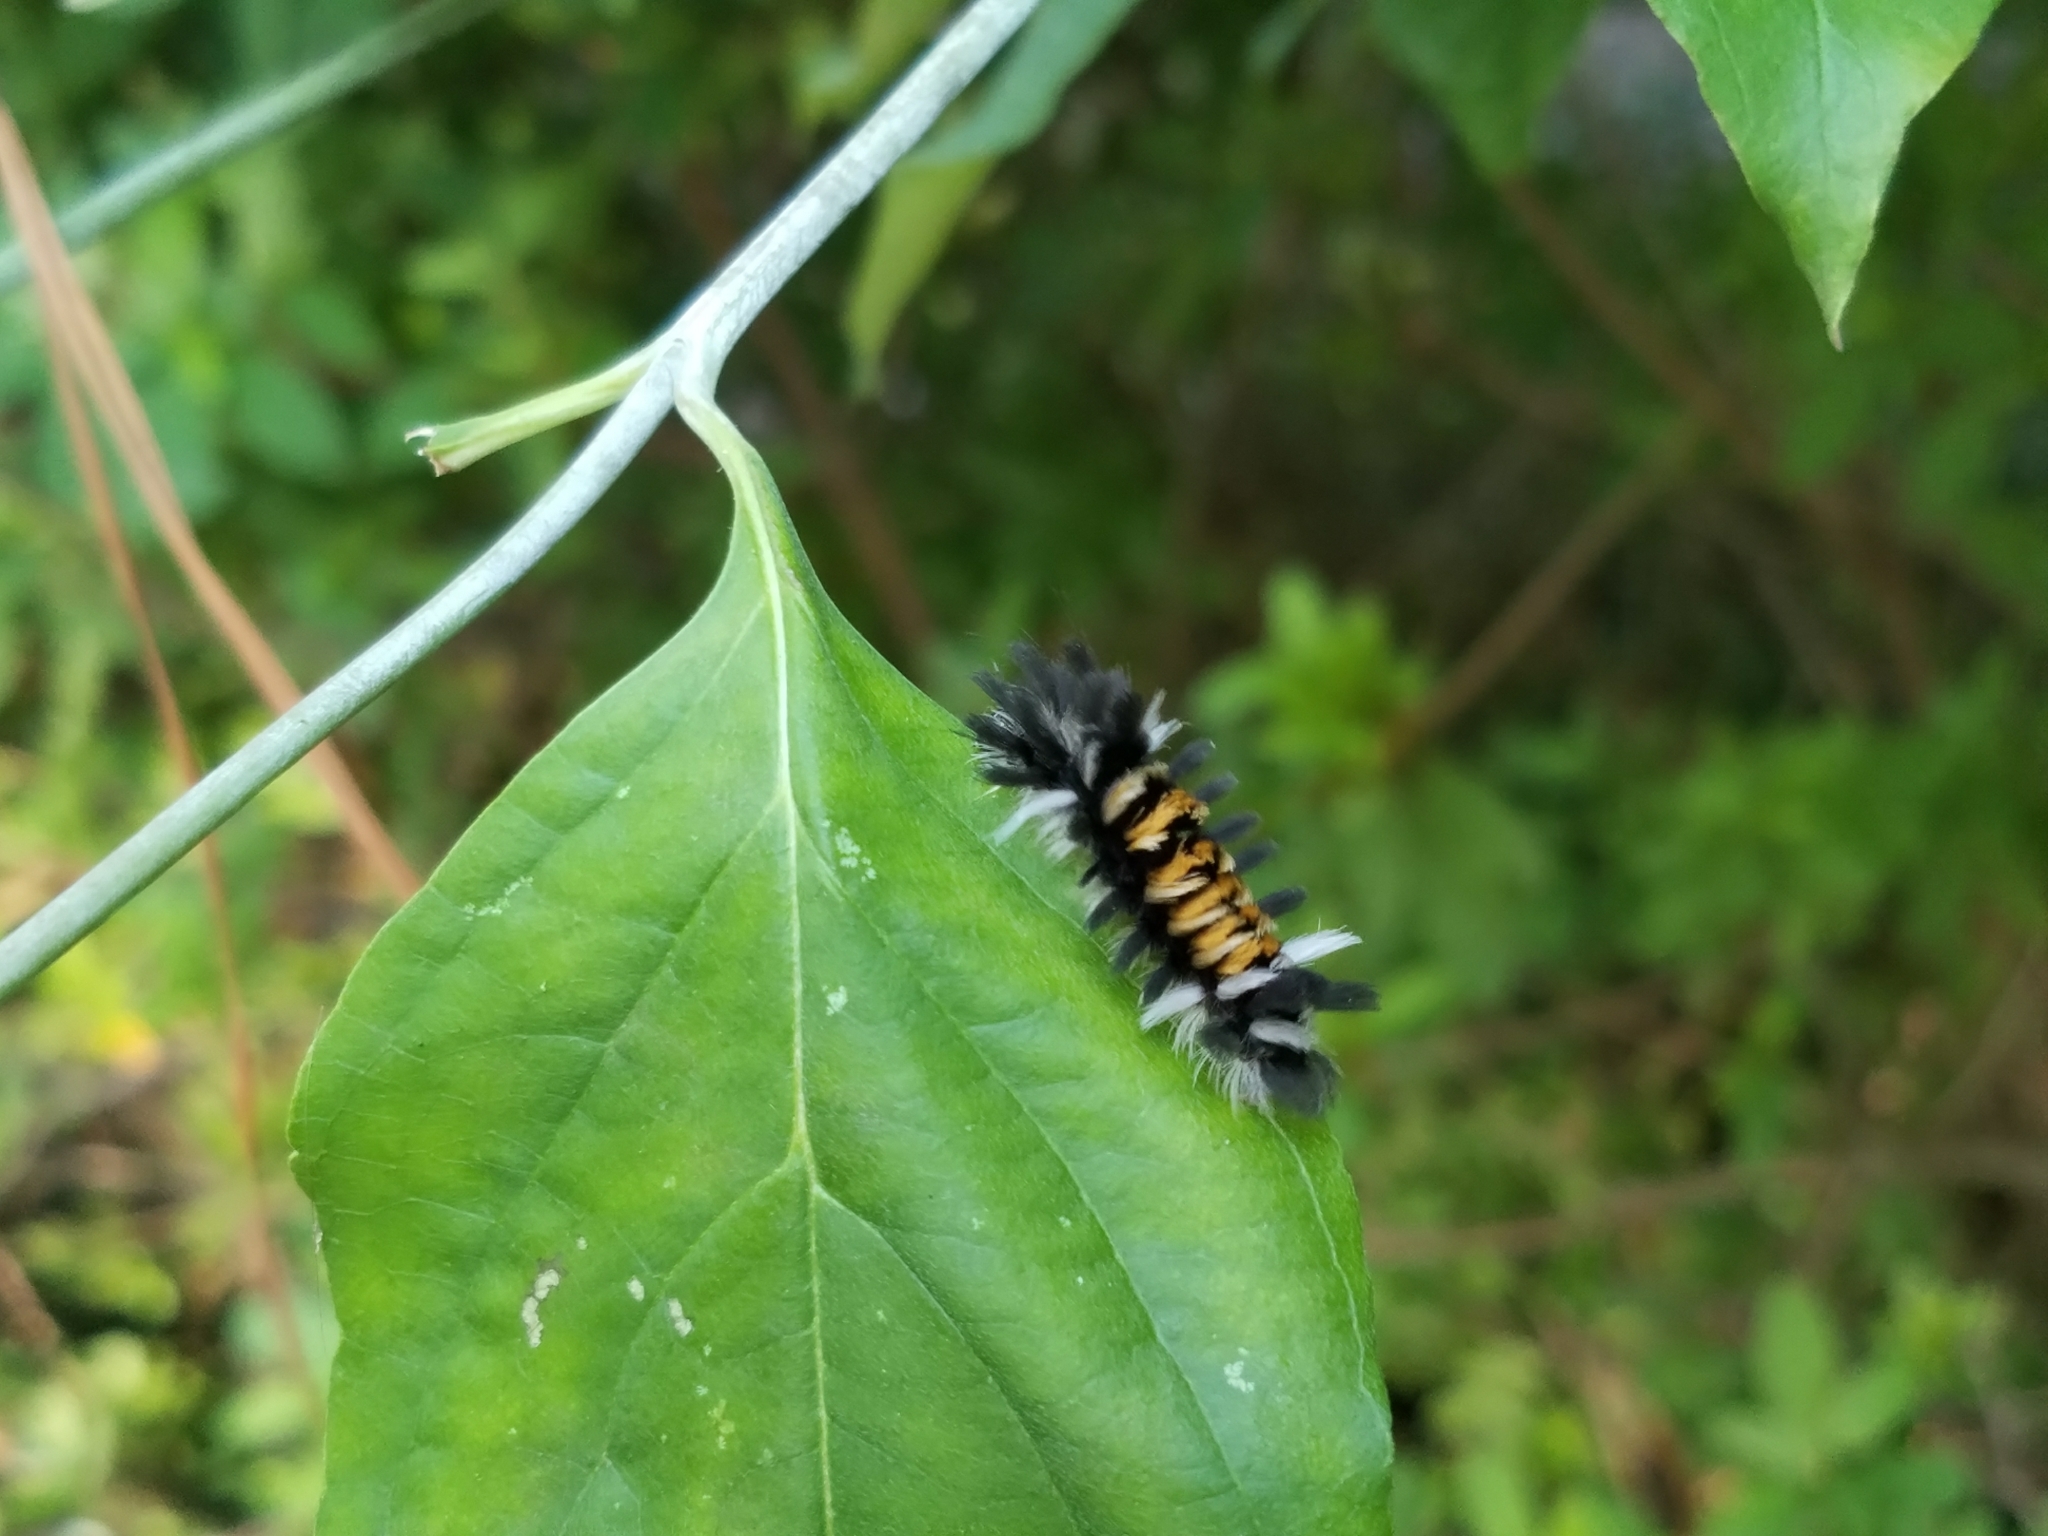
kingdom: Animalia
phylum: Arthropoda
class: Insecta
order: Lepidoptera
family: Erebidae
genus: Euchaetes
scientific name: Euchaetes egle
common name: Milkweed tussock moth
